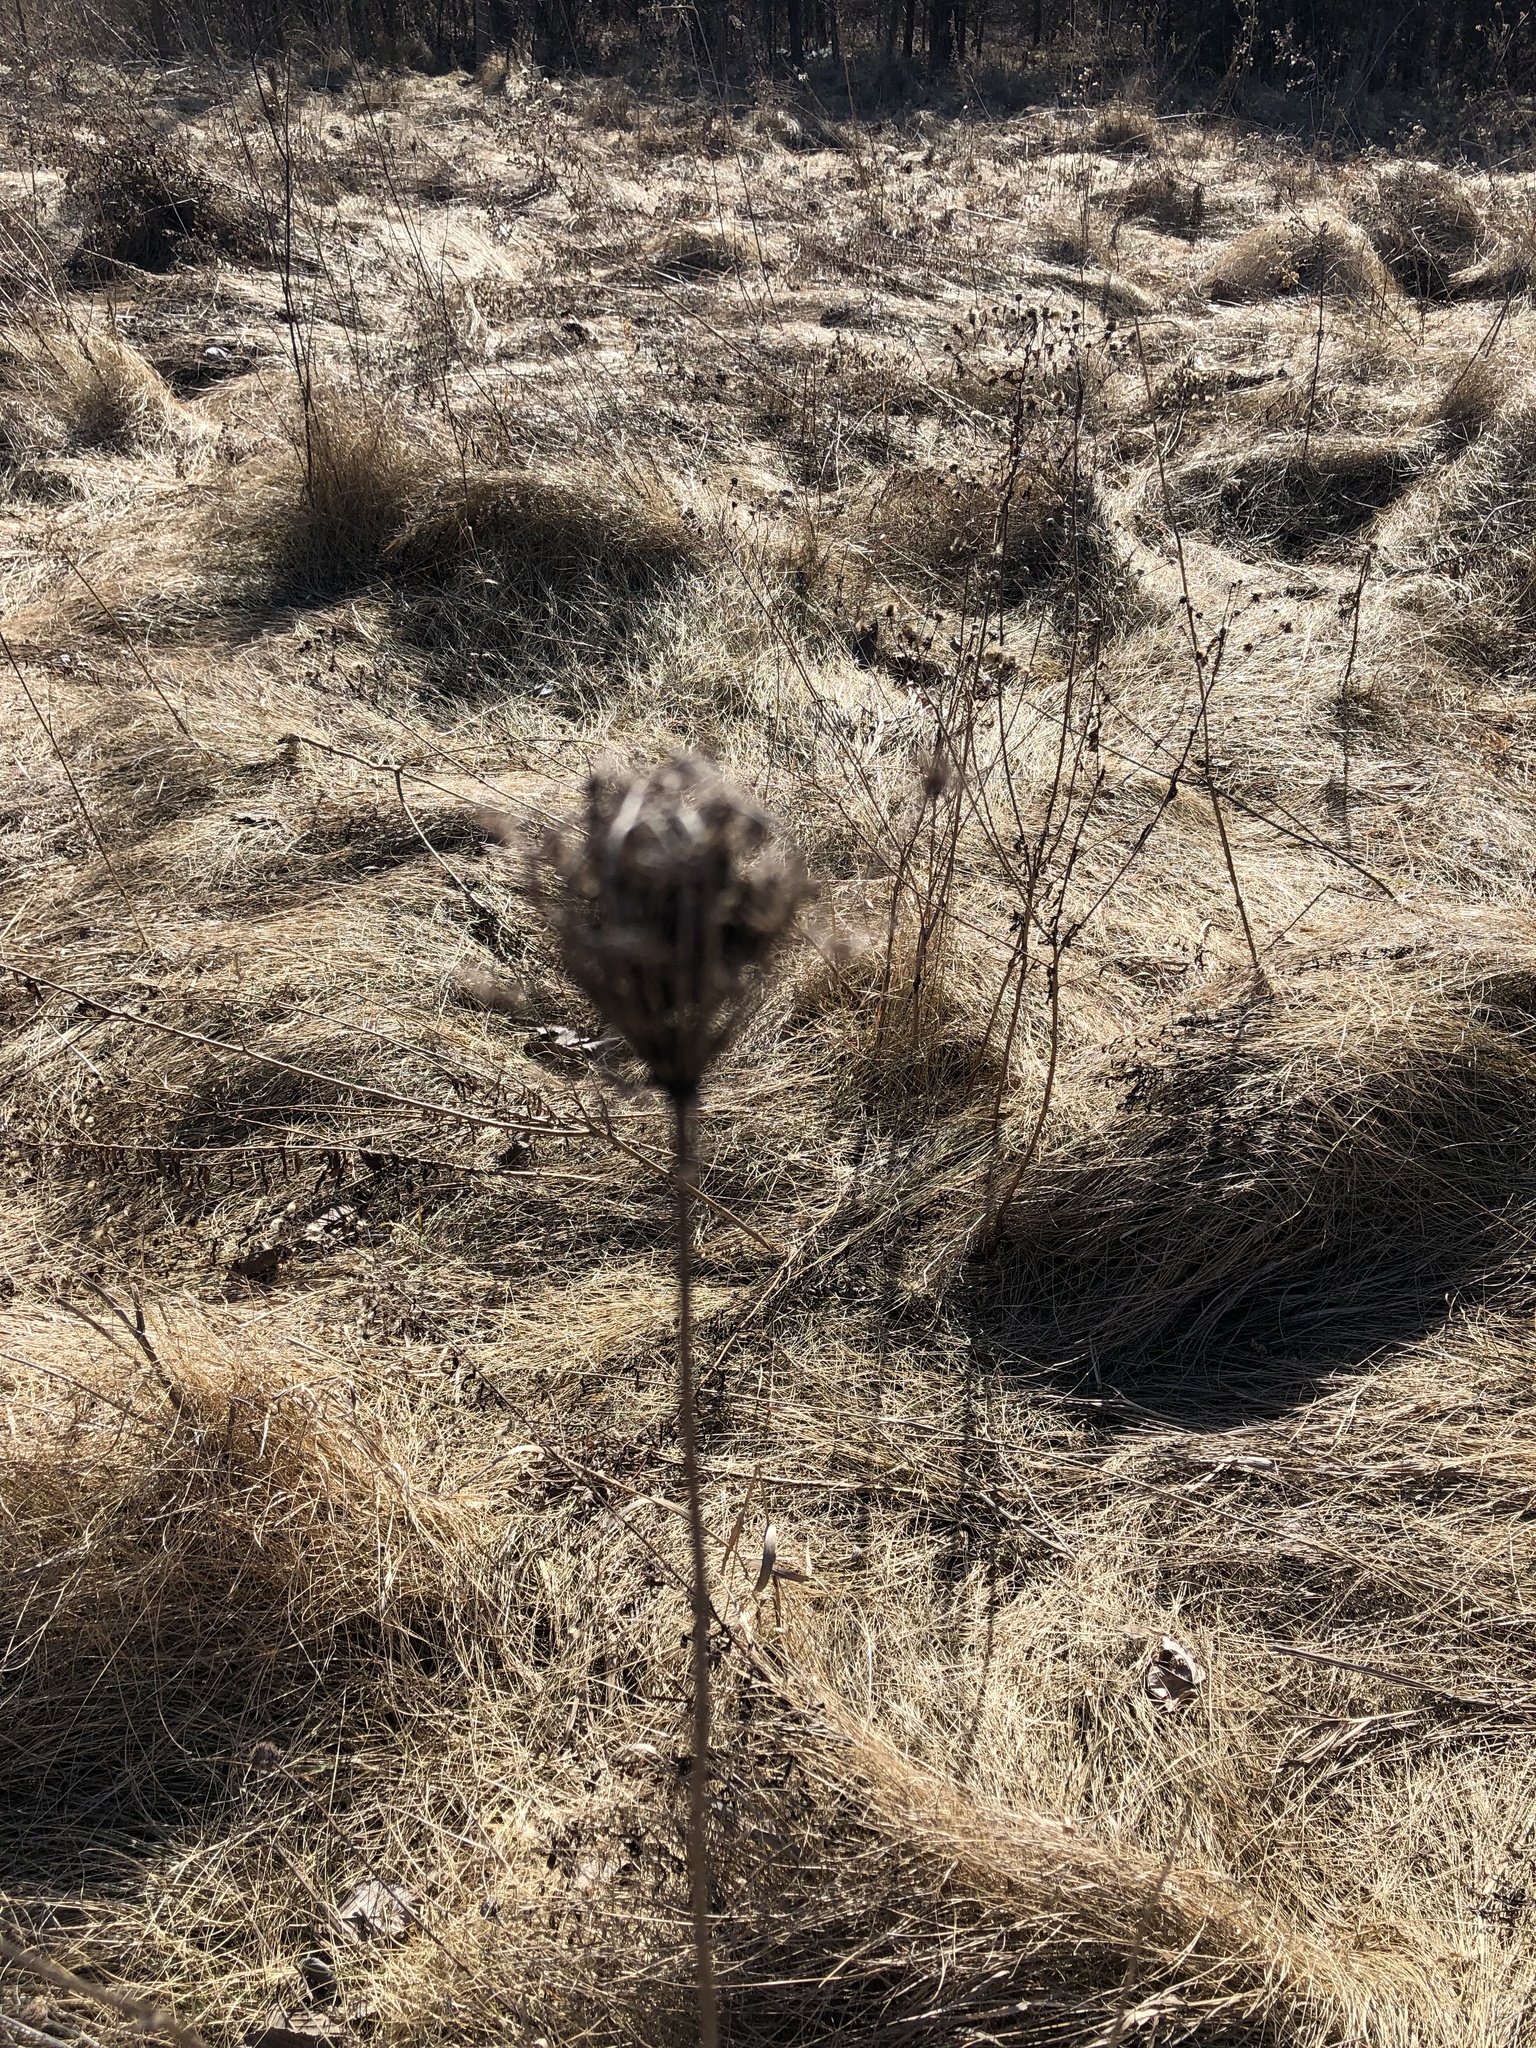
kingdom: Plantae
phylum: Tracheophyta
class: Magnoliopsida
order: Apiales
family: Apiaceae
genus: Daucus
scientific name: Daucus carota
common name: Wild carrot
